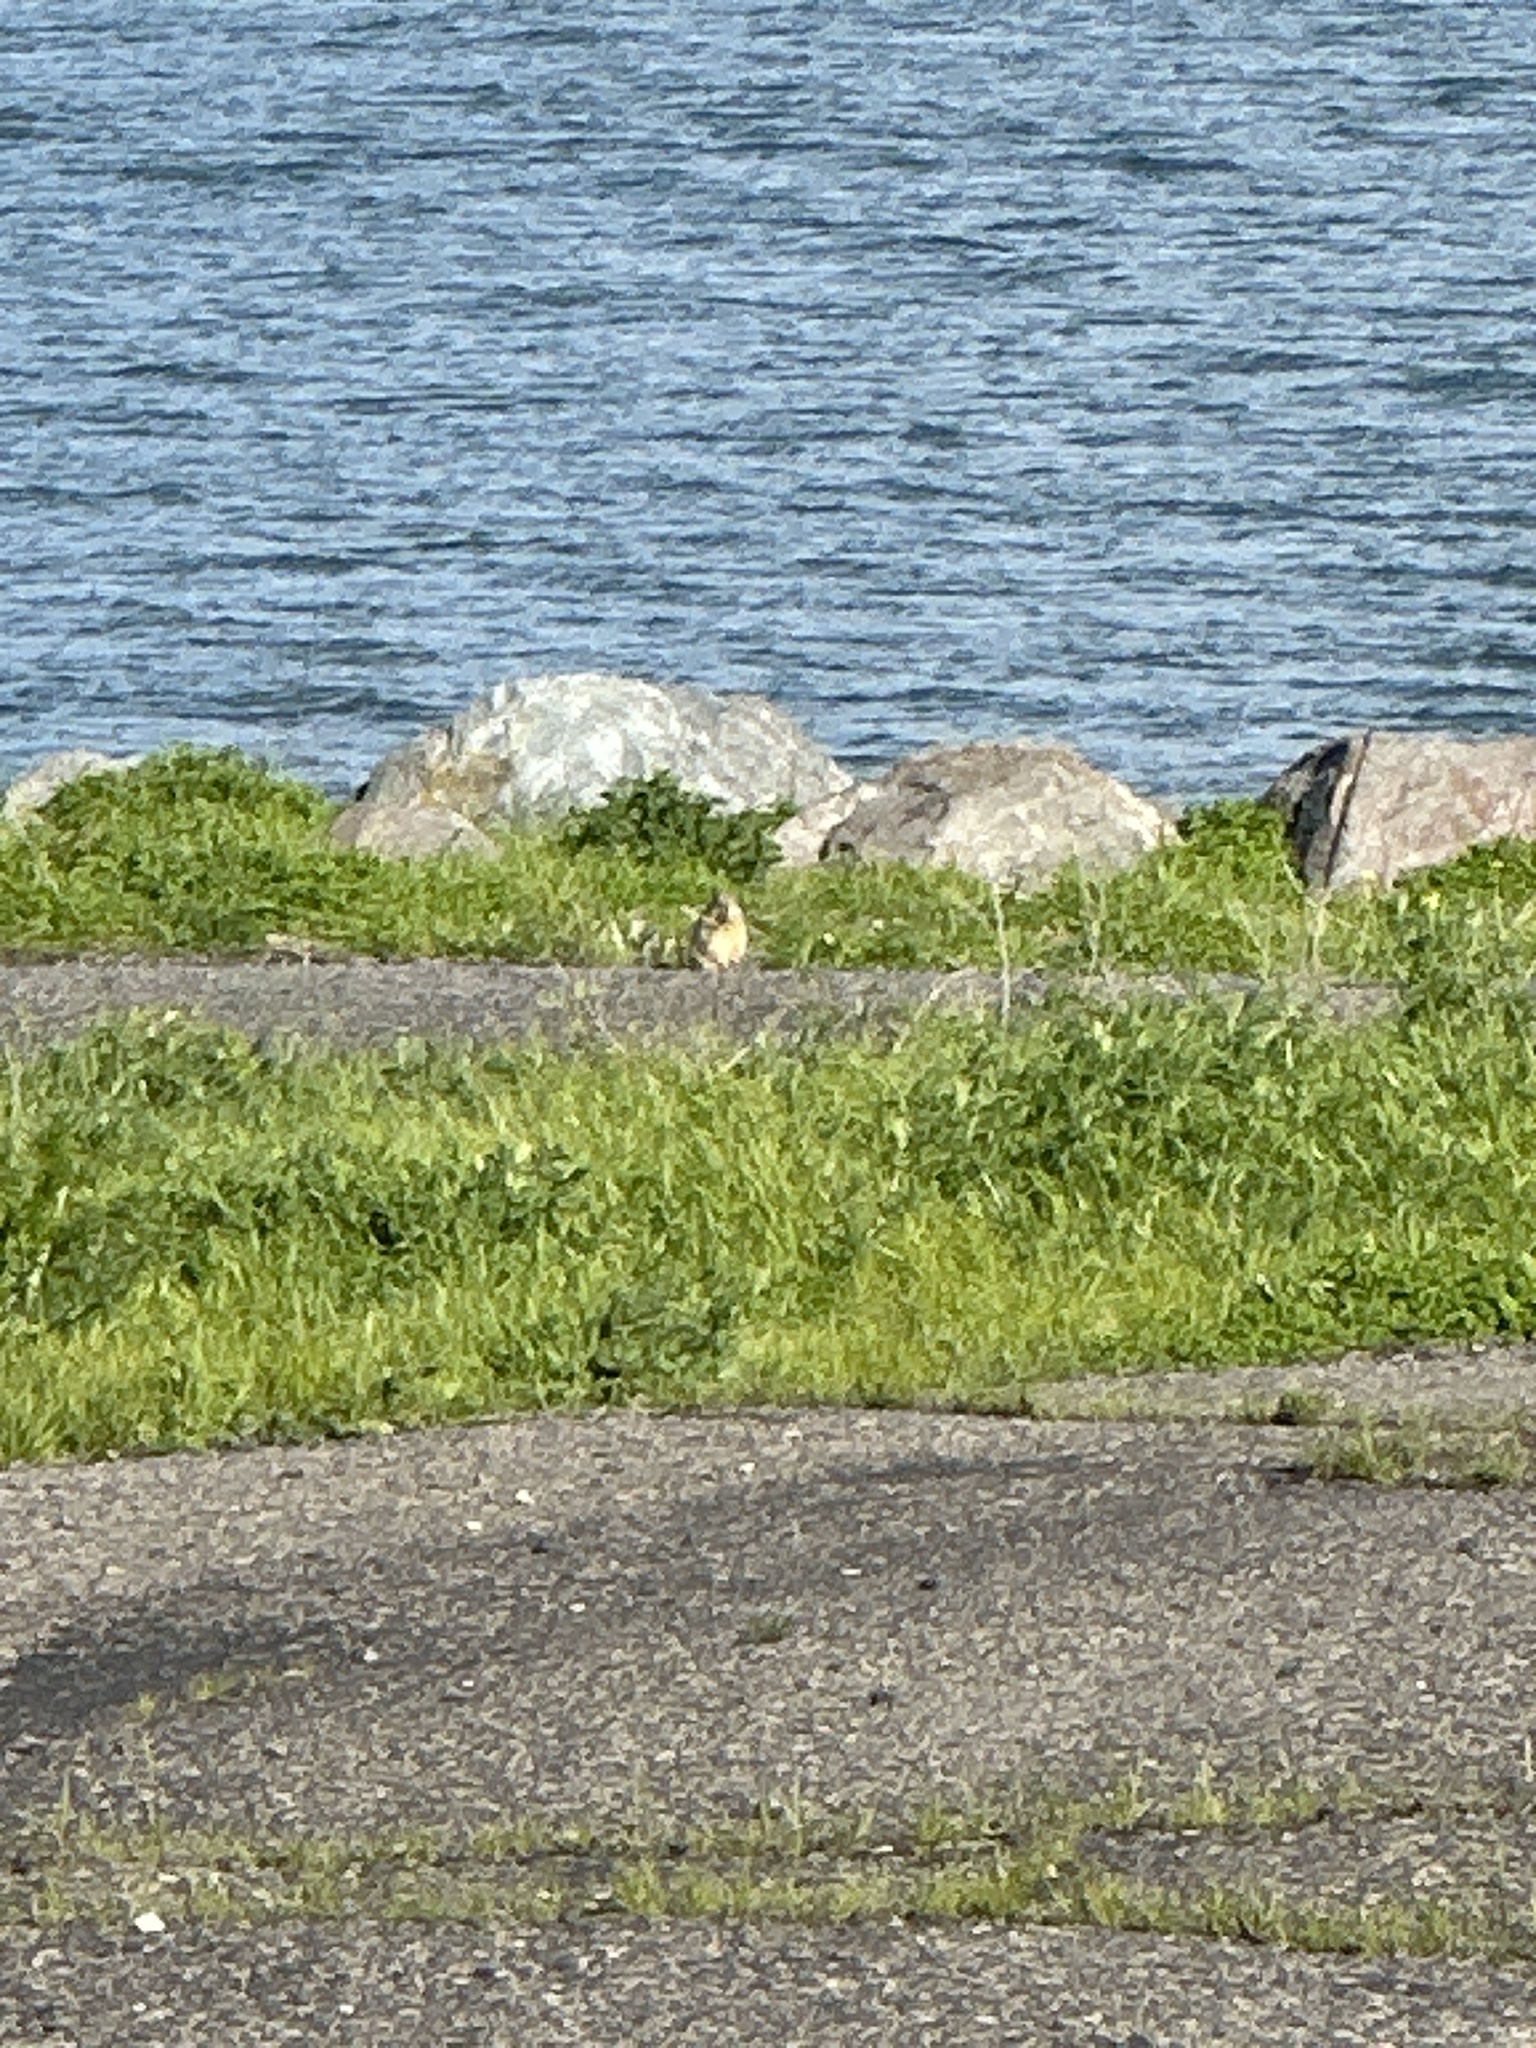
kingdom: Animalia
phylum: Chordata
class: Mammalia
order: Rodentia
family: Sciuridae
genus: Otospermophilus
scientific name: Otospermophilus beecheyi
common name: California ground squirrel
